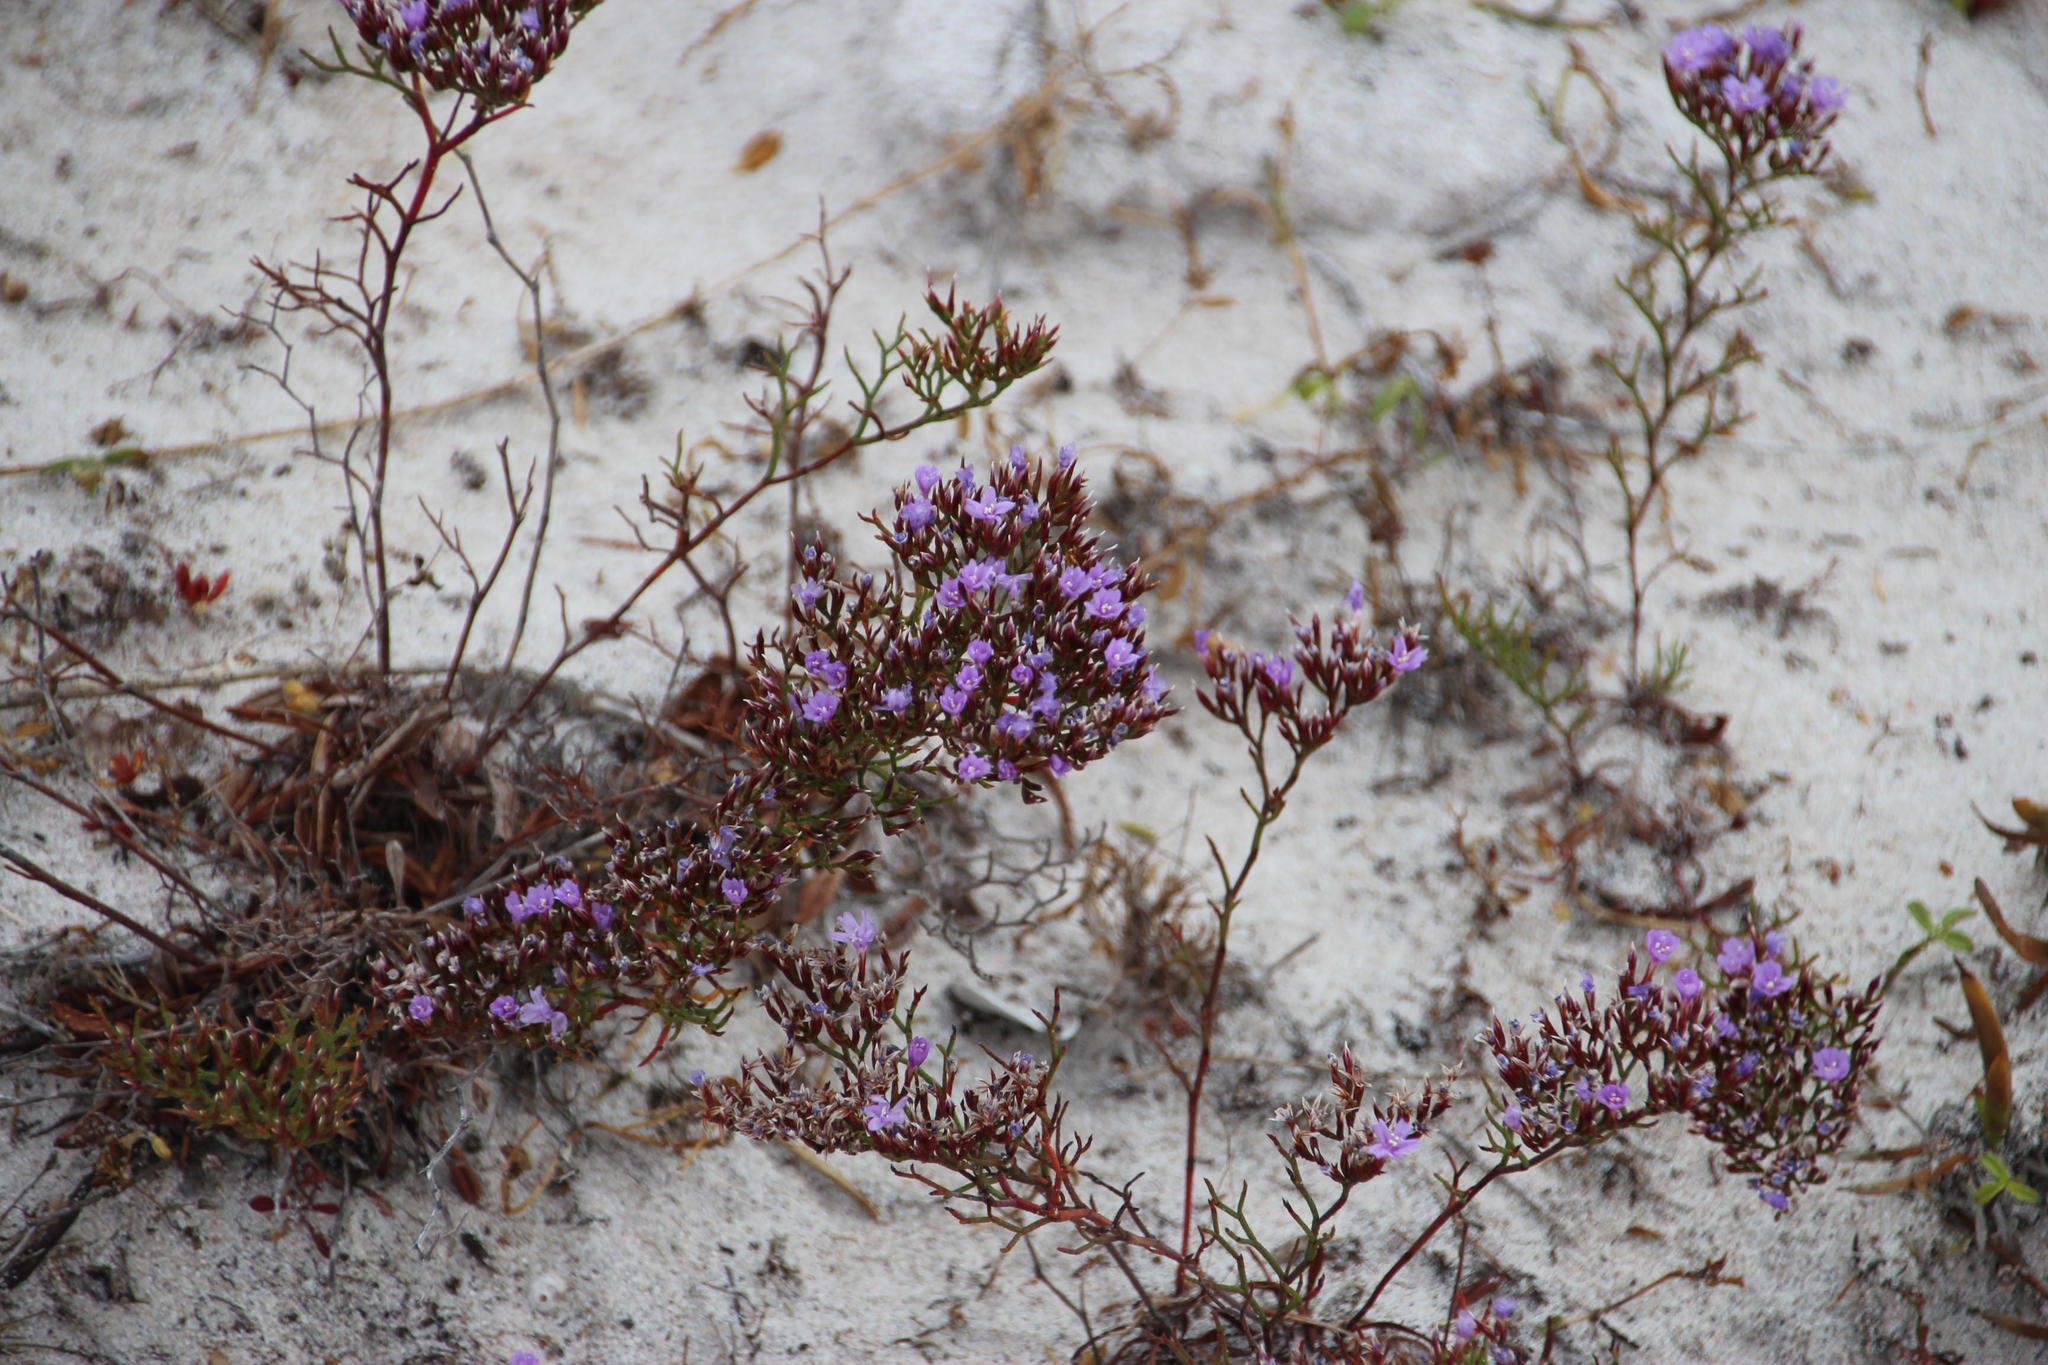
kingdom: Plantae
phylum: Tracheophyta
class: Magnoliopsida
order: Caryophyllales
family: Plumbaginaceae
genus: Limonium
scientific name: Limonium scabrum
